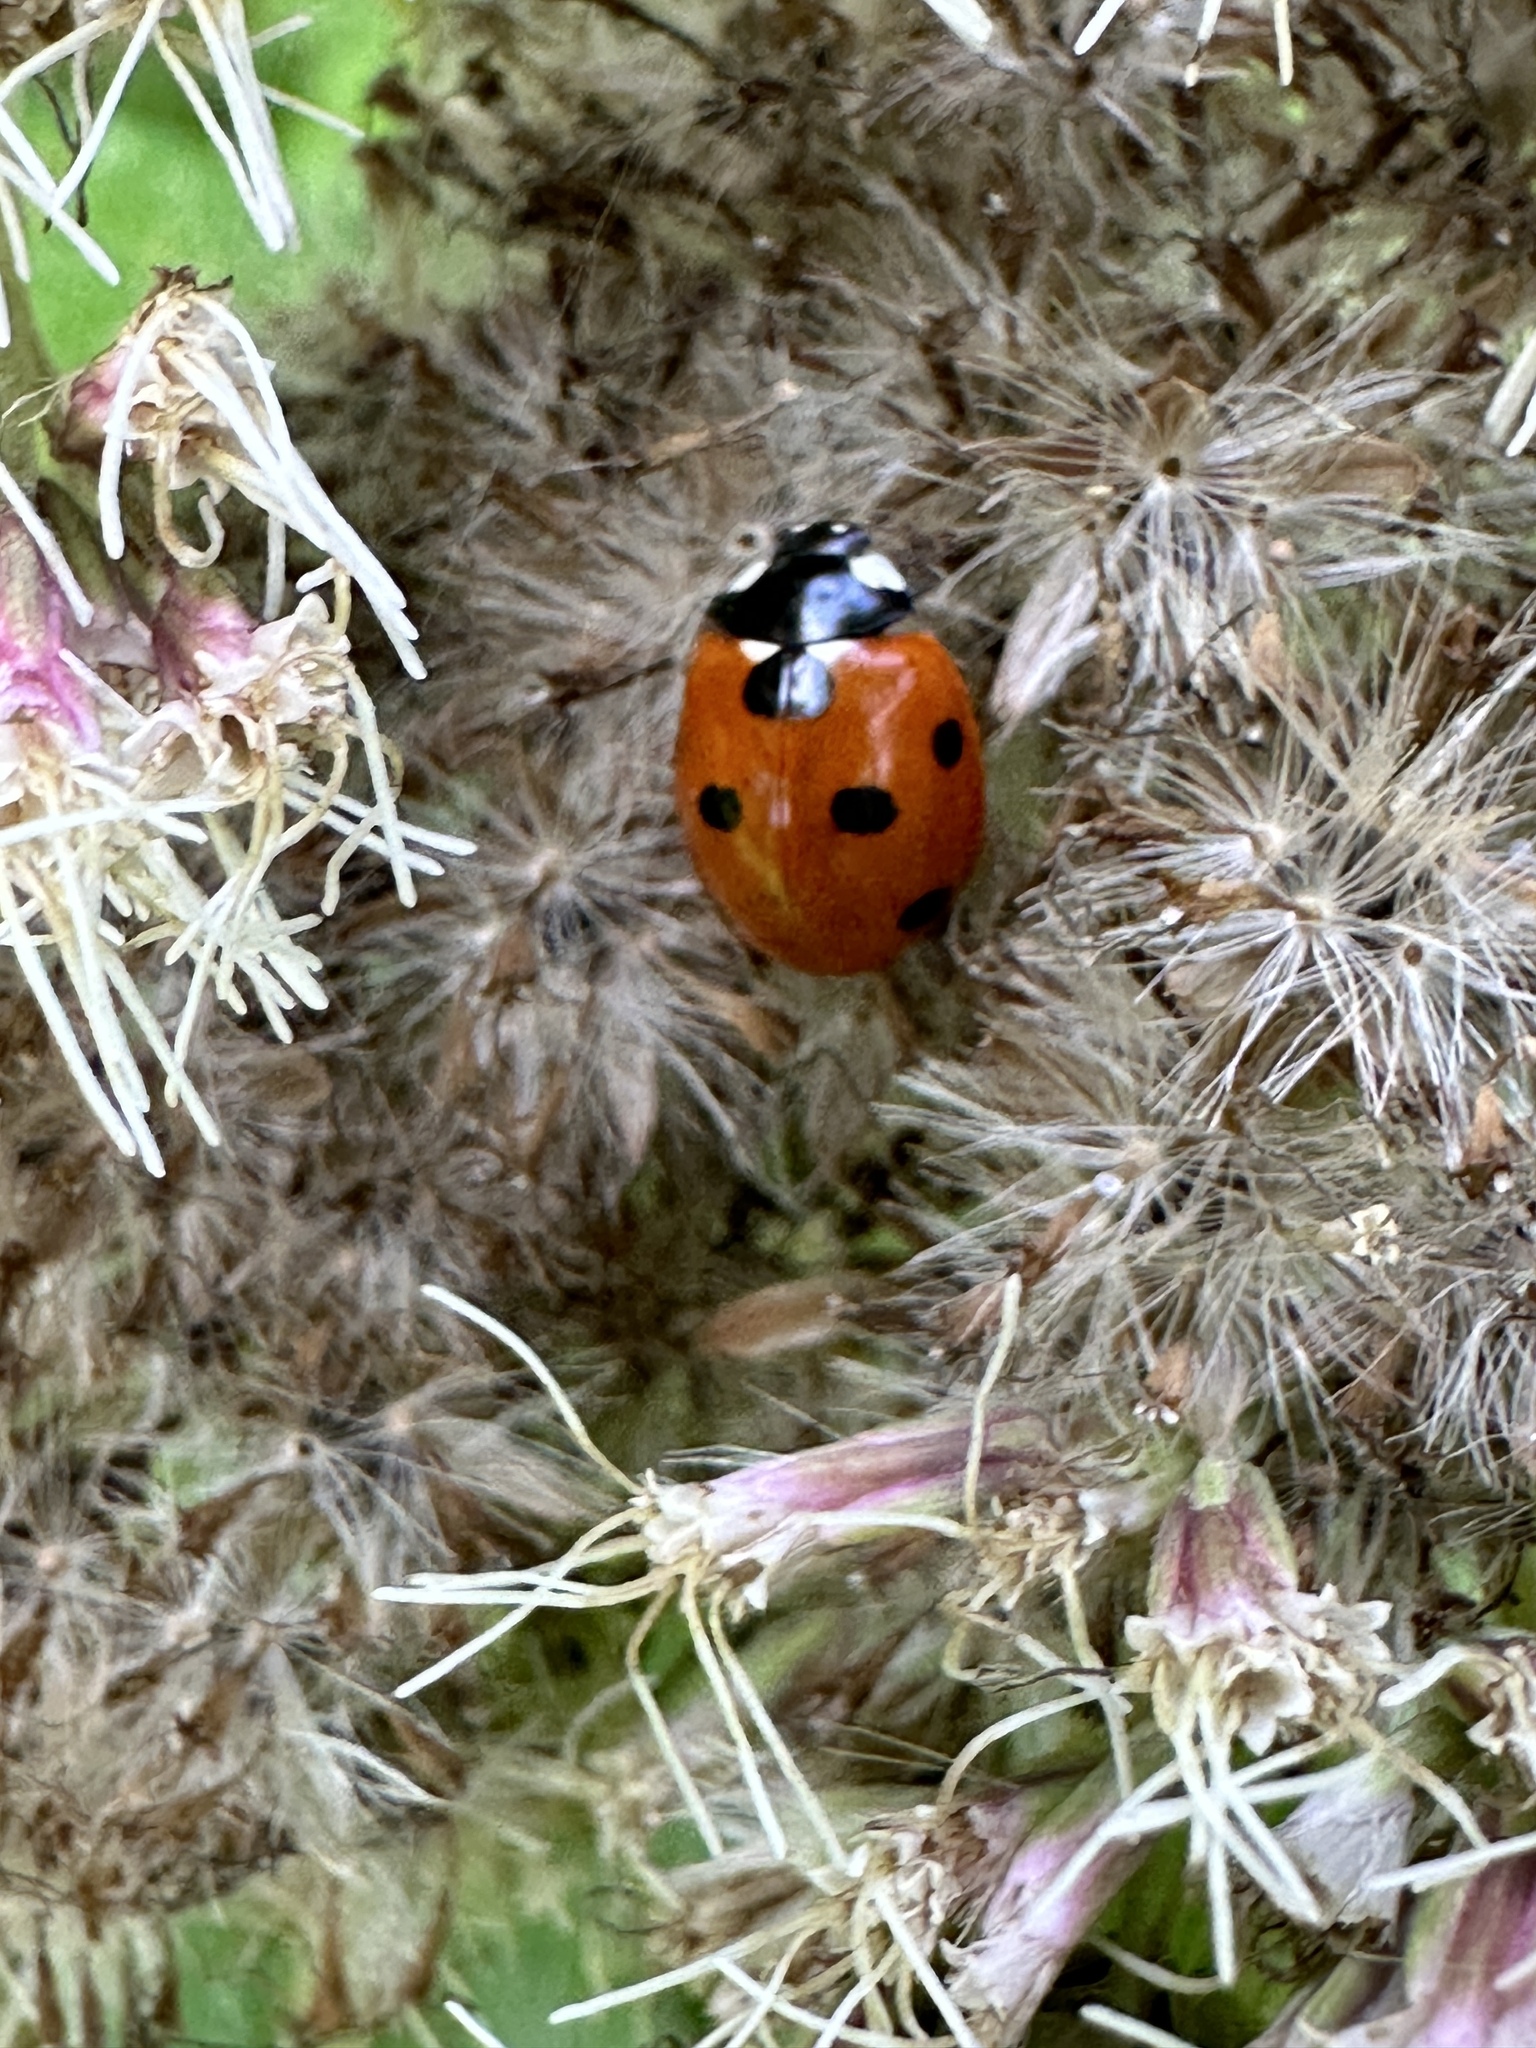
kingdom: Animalia
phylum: Arthropoda
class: Insecta
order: Coleoptera
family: Coccinellidae
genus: Coccinella
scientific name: Coccinella septempunctata
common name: Sevenspotted lady beetle
